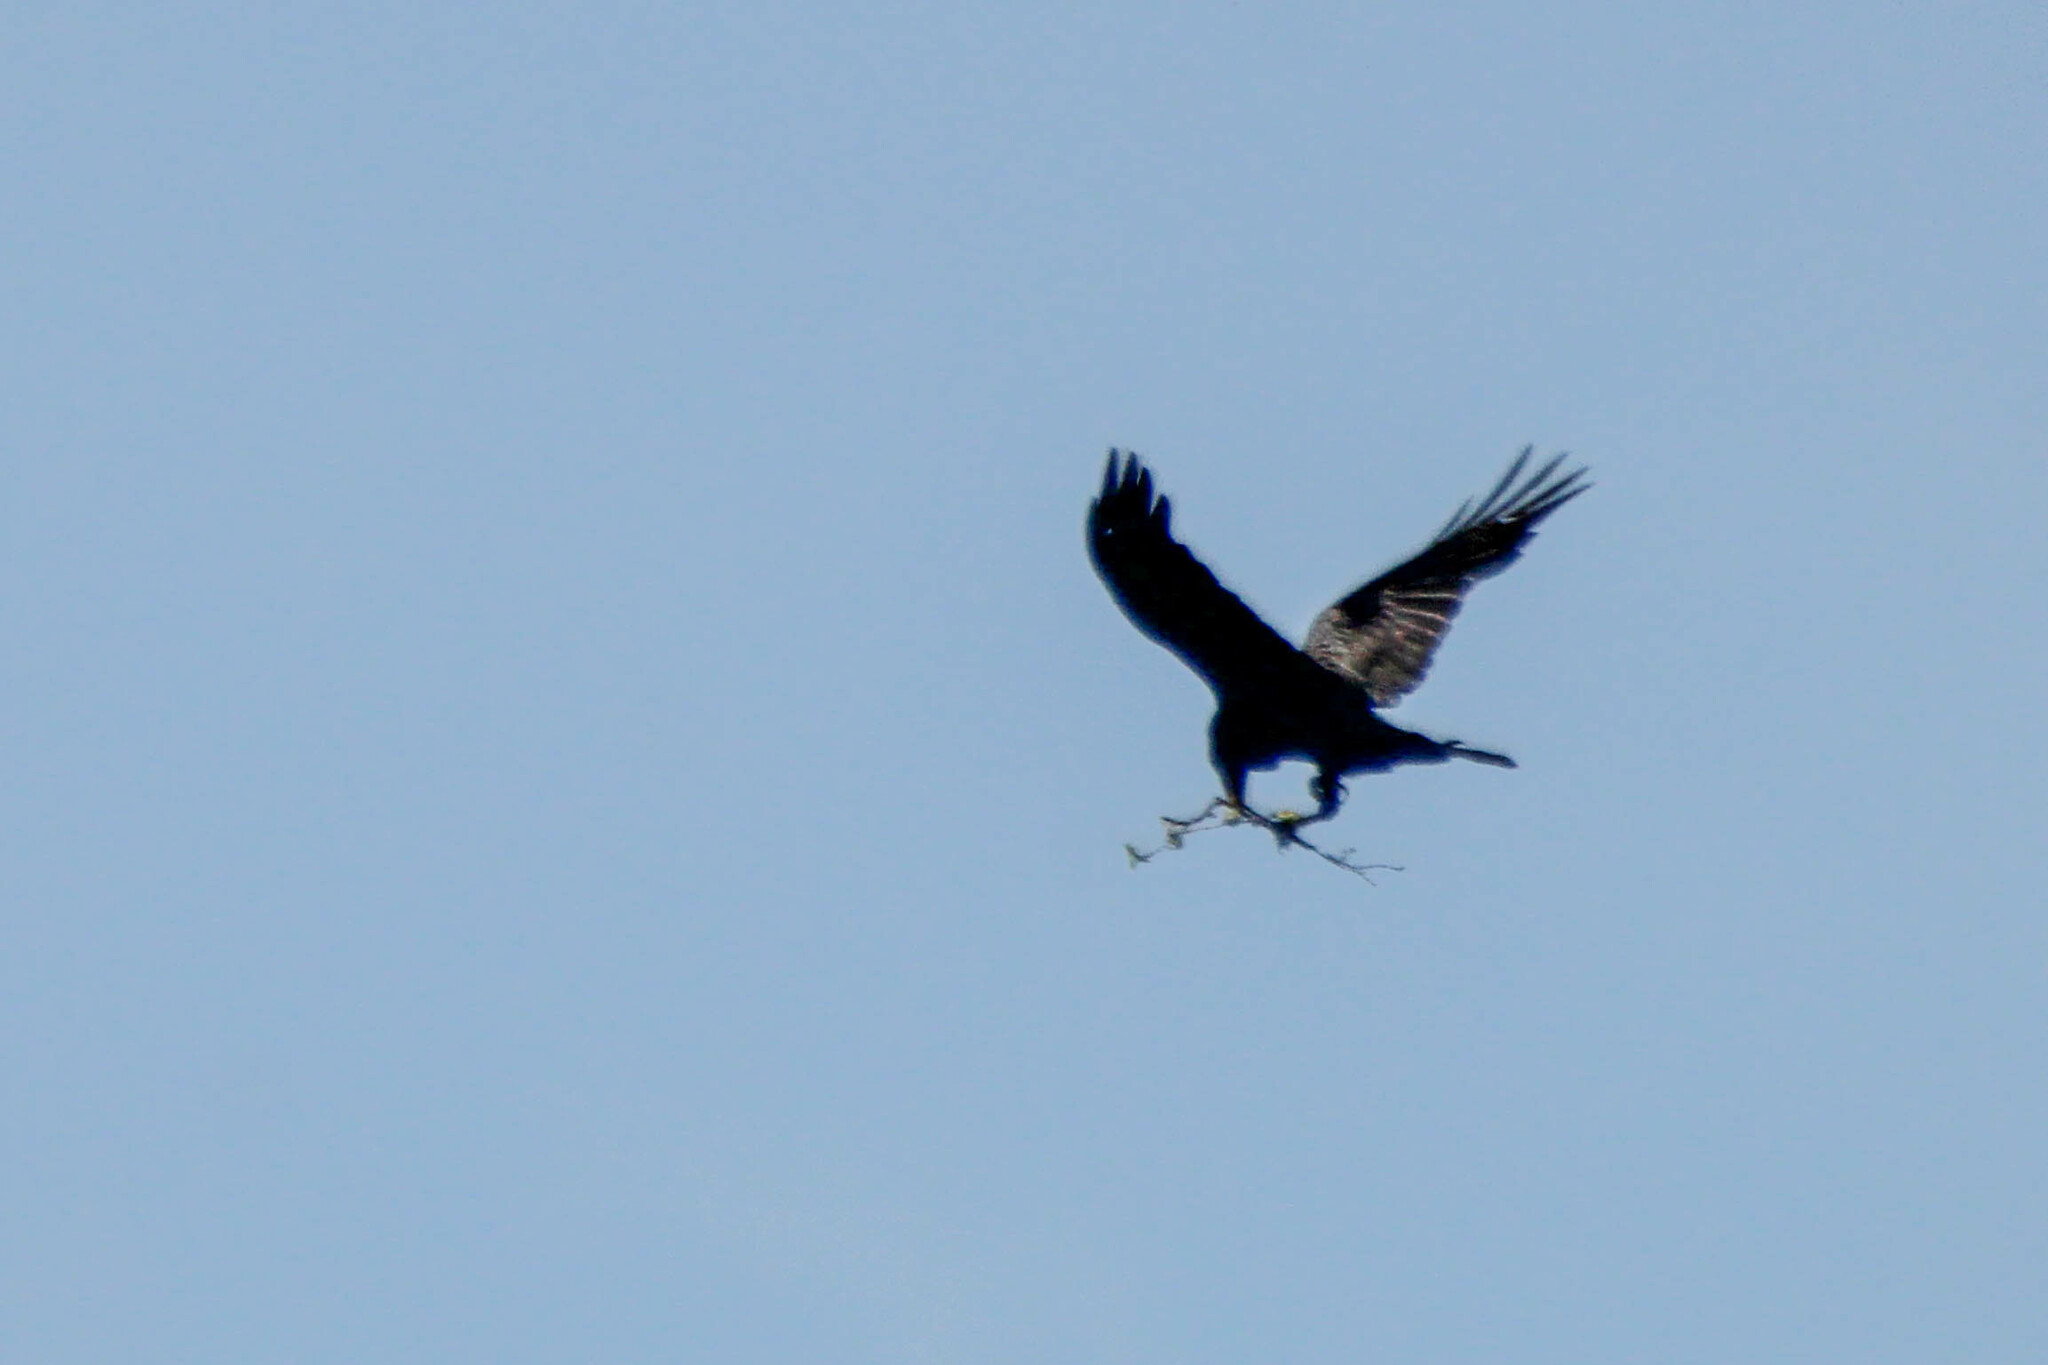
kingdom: Animalia
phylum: Chordata
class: Aves
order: Passeriformes
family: Corvidae
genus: Corvus
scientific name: Corvus corax
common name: Common raven
